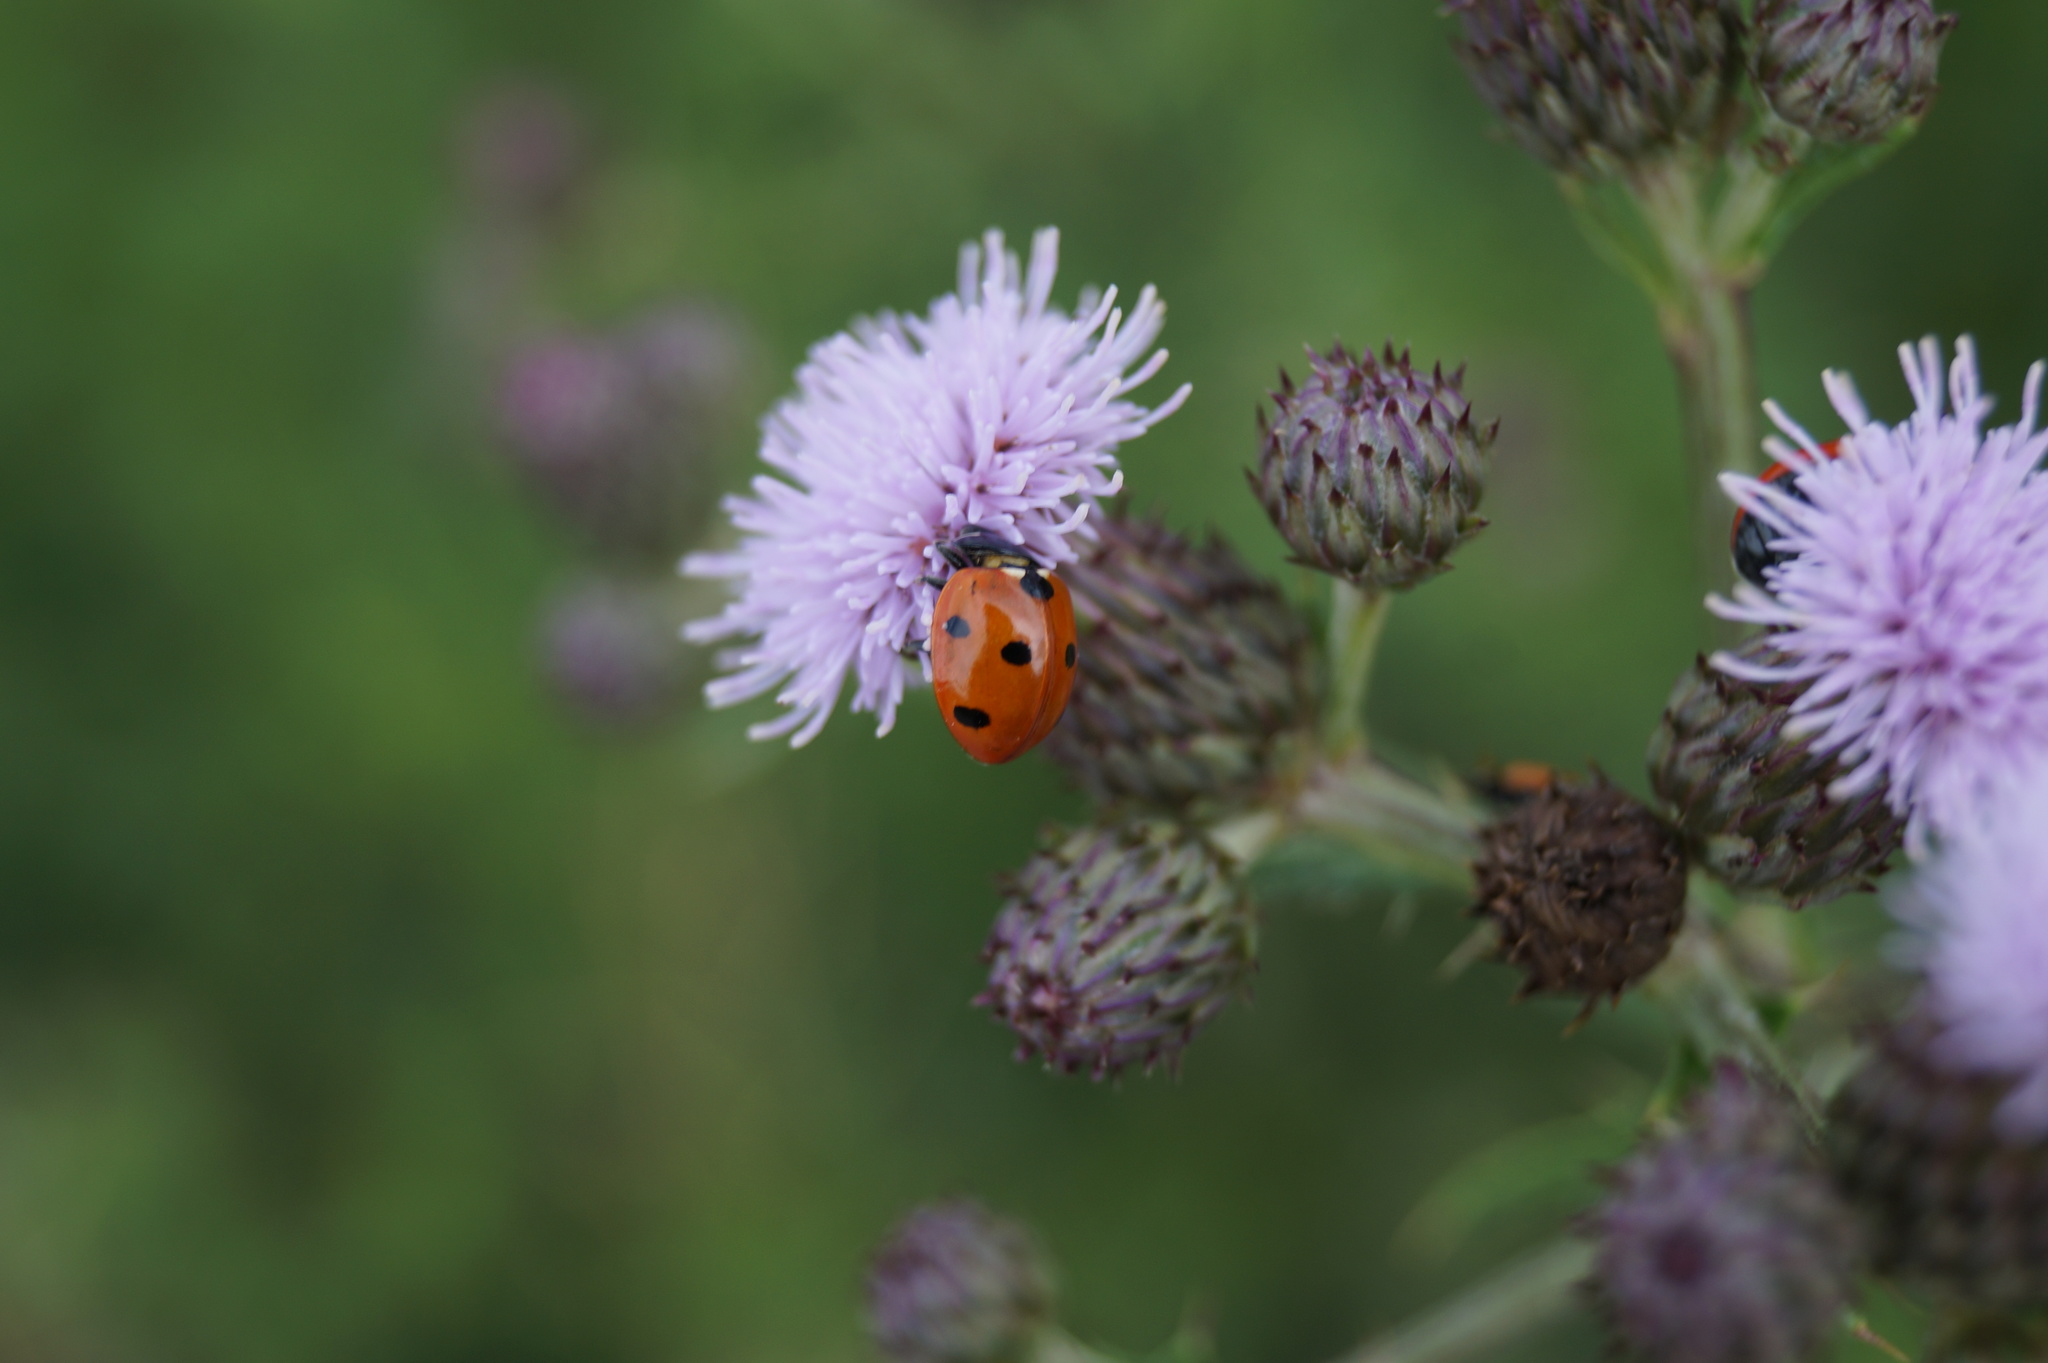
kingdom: Animalia
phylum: Arthropoda
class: Insecta
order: Coleoptera
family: Coccinellidae
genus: Coccinella
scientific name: Coccinella septempunctata
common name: Sevenspotted lady beetle
